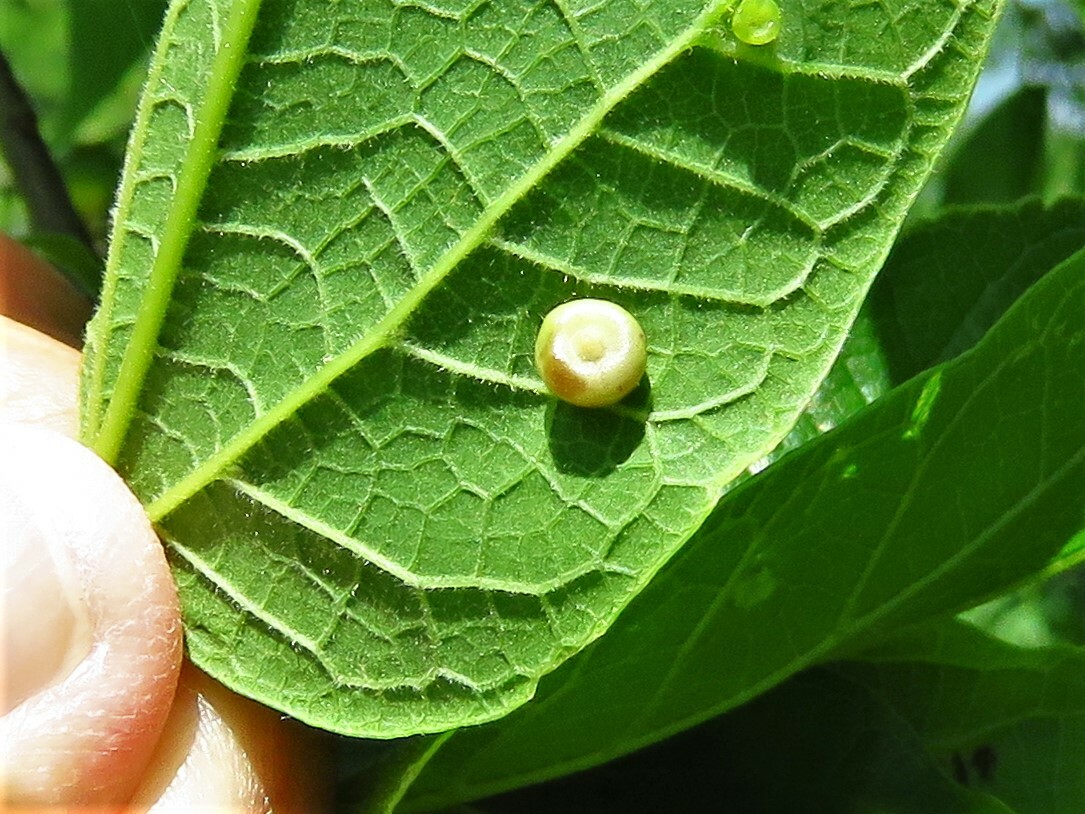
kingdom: Animalia
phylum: Arthropoda
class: Insecta
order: Hemiptera
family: Aphalaridae
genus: Pachypsylla
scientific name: Pachypsylla celtidismamma
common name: Hackberry nipplegall psyllid
